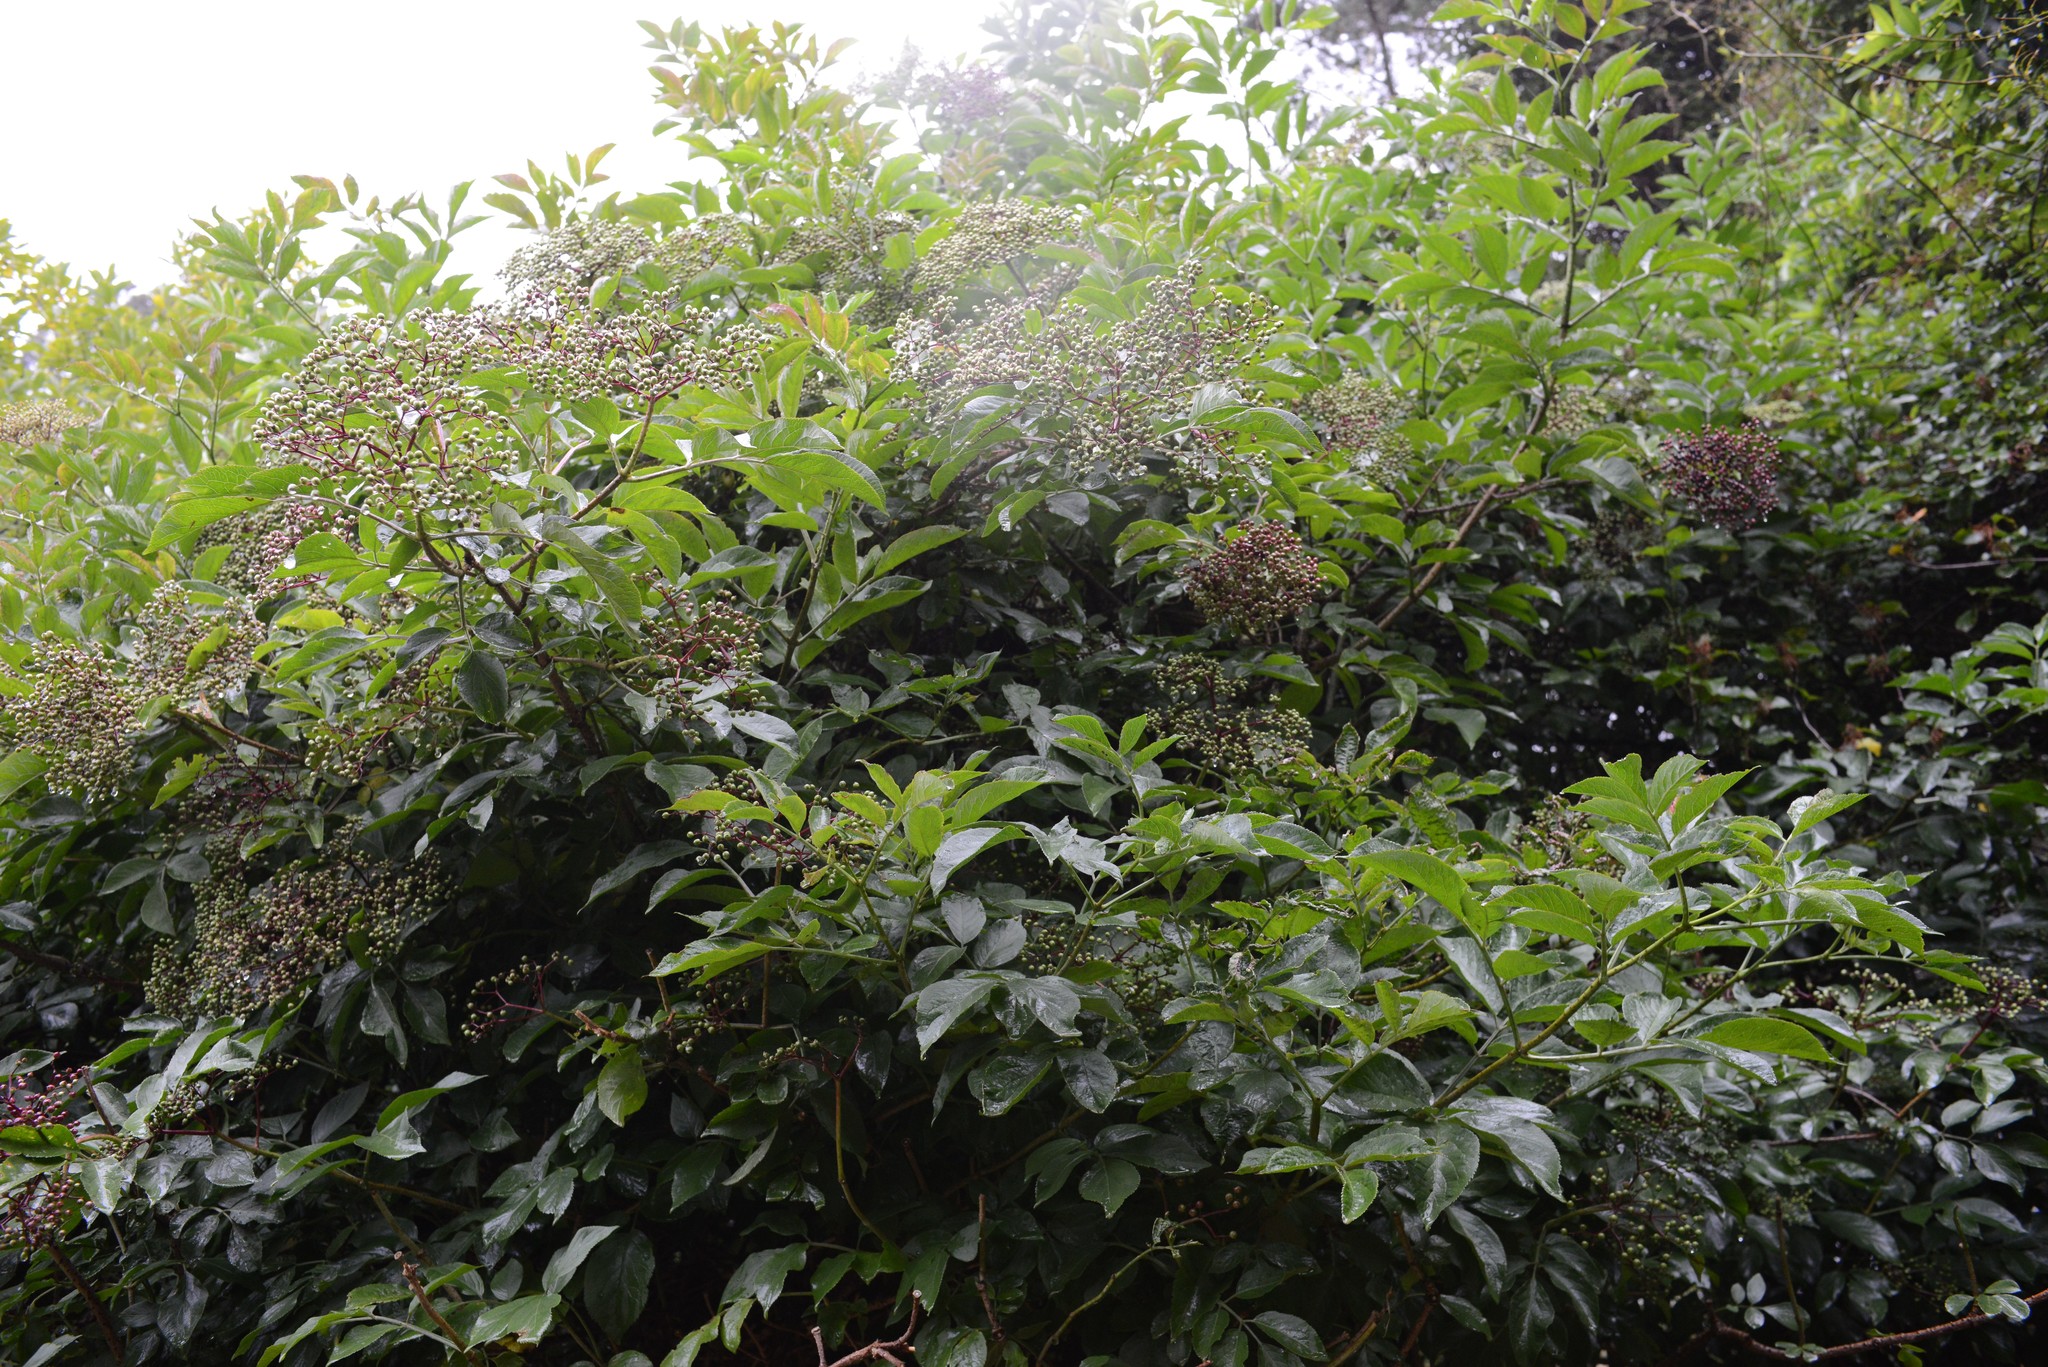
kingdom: Plantae
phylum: Tracheophyta
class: Magnoliopsida
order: Dipsacales
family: Viburnaceae
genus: Sambucus
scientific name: Sambucus nigra
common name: Elder
